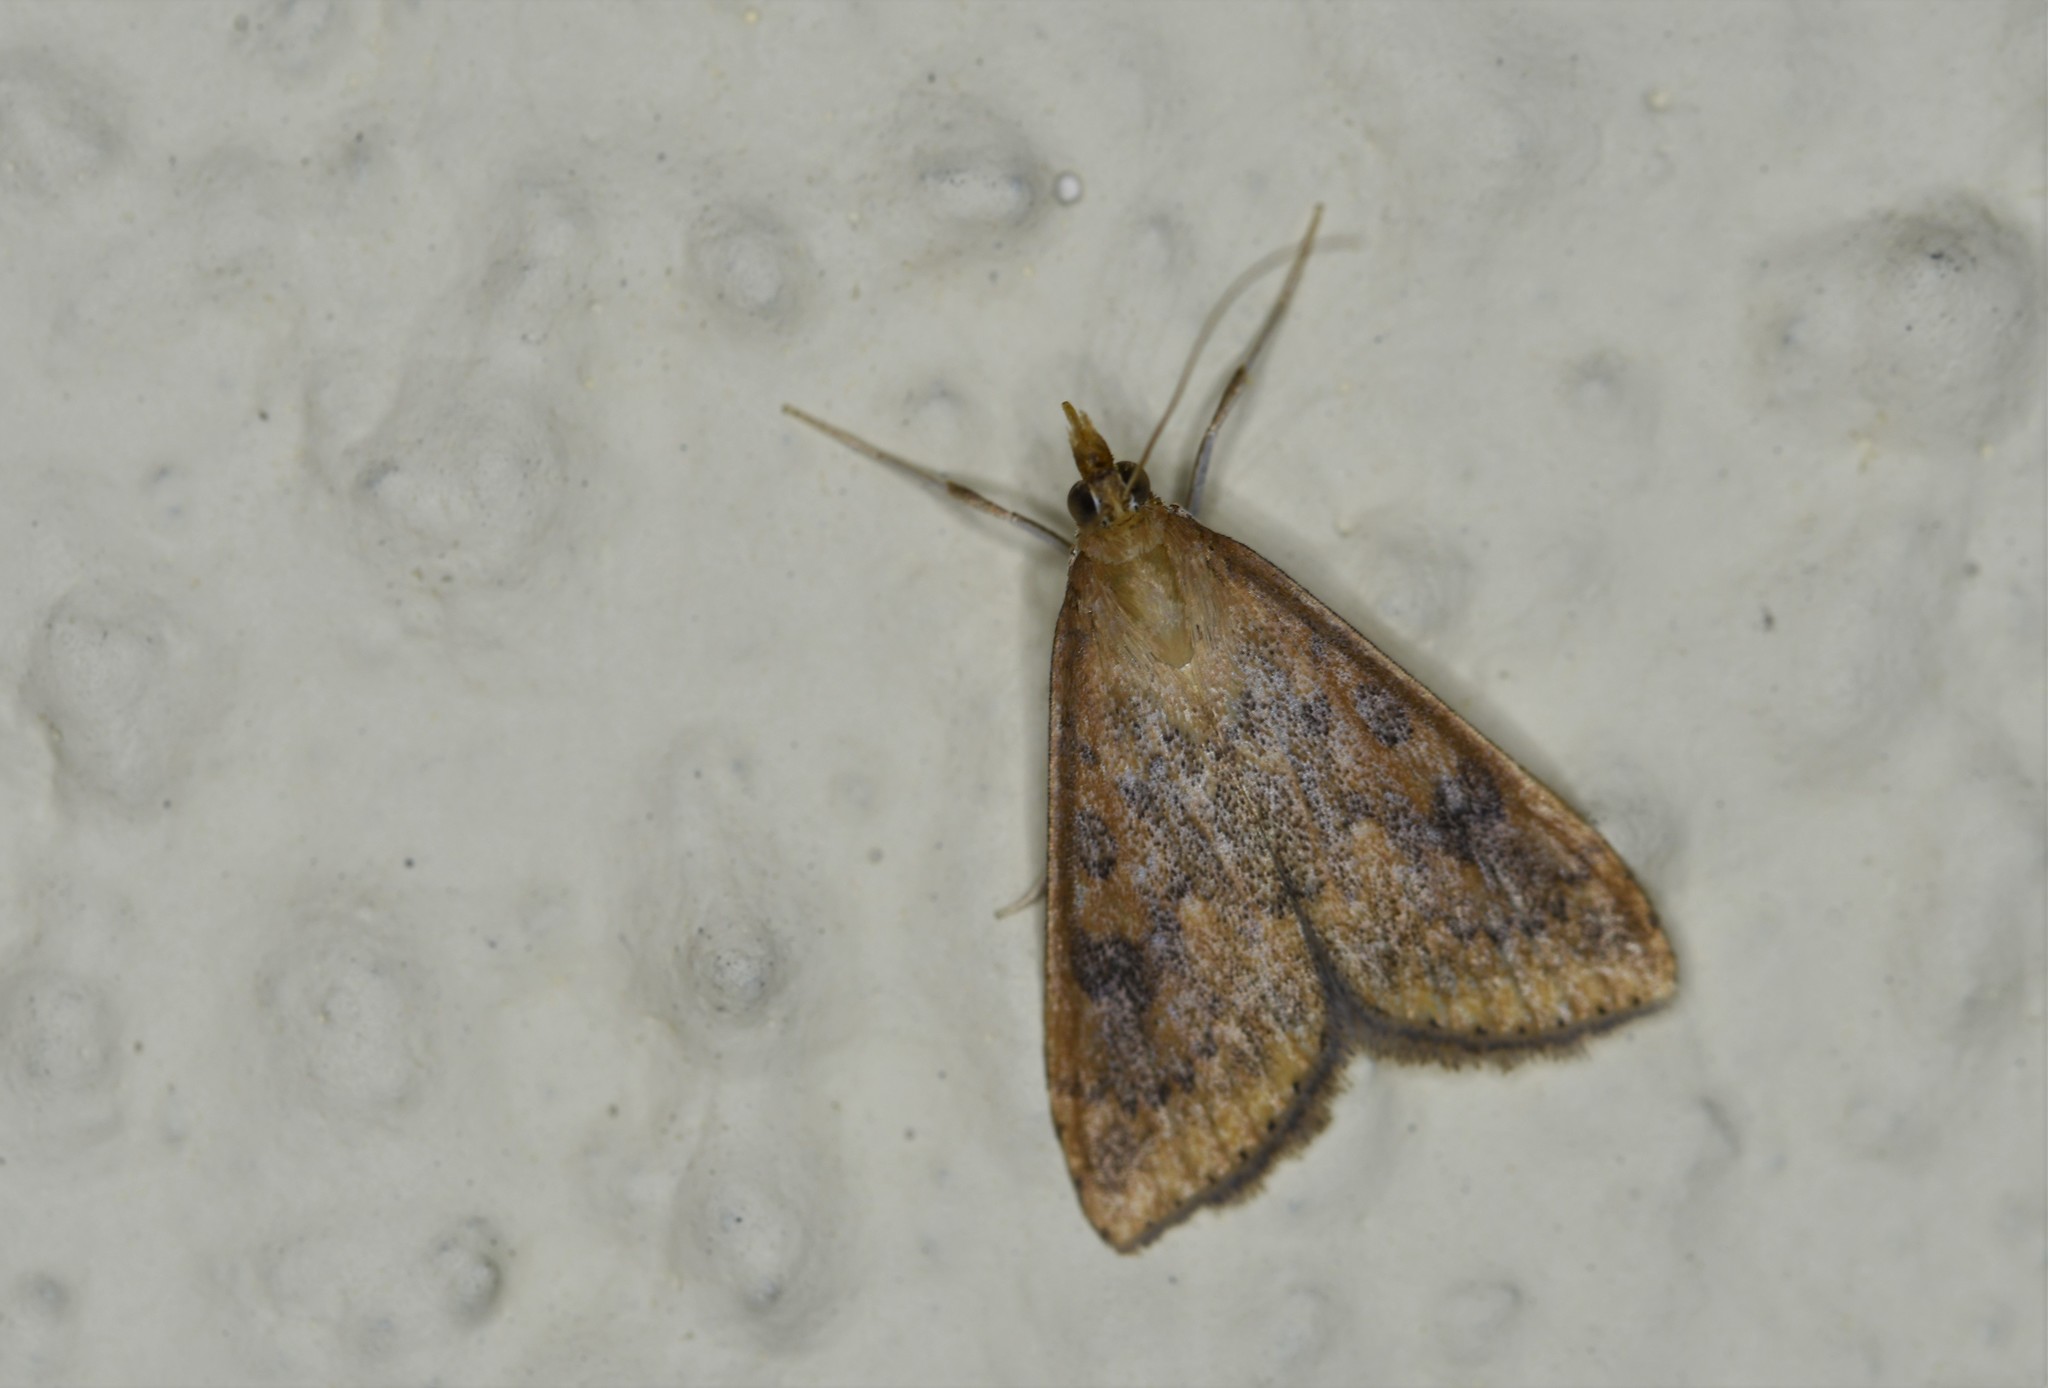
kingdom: Animalia
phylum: Arthropoda
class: Insecta
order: Lepidoptera
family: Crambidae
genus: Udea
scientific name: Udea ferrugalis
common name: Rusty dot
